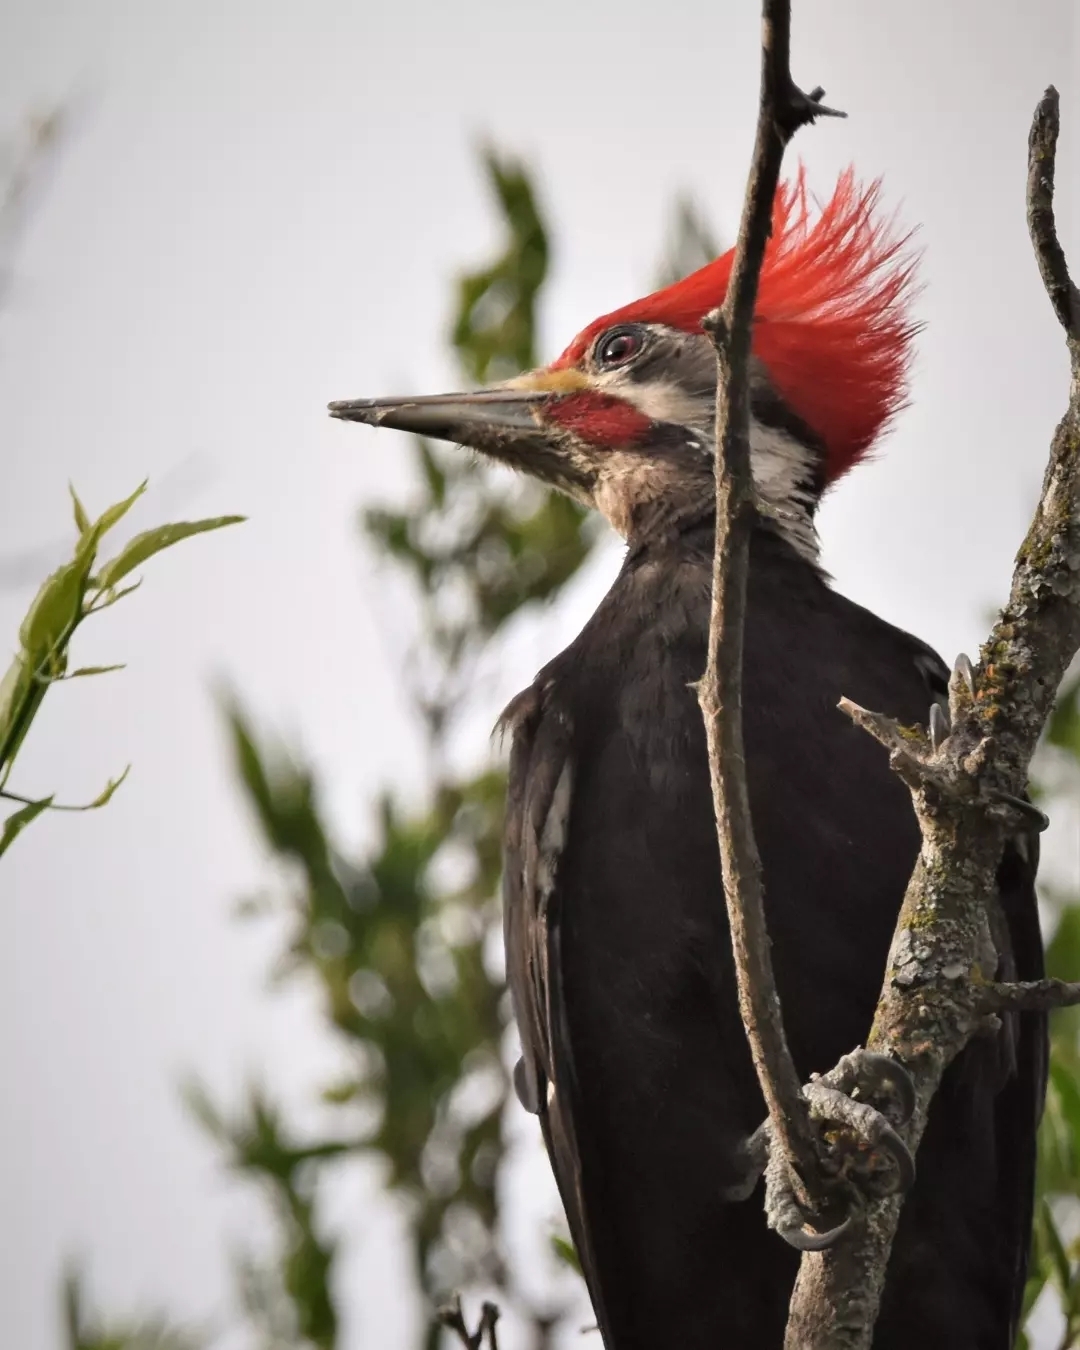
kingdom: Animalia
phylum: Chordata
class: Aves
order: Piciformes
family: Picidae
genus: Dryocopus
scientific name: Dryocopus schulzii
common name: Black-bodied woodpecker
